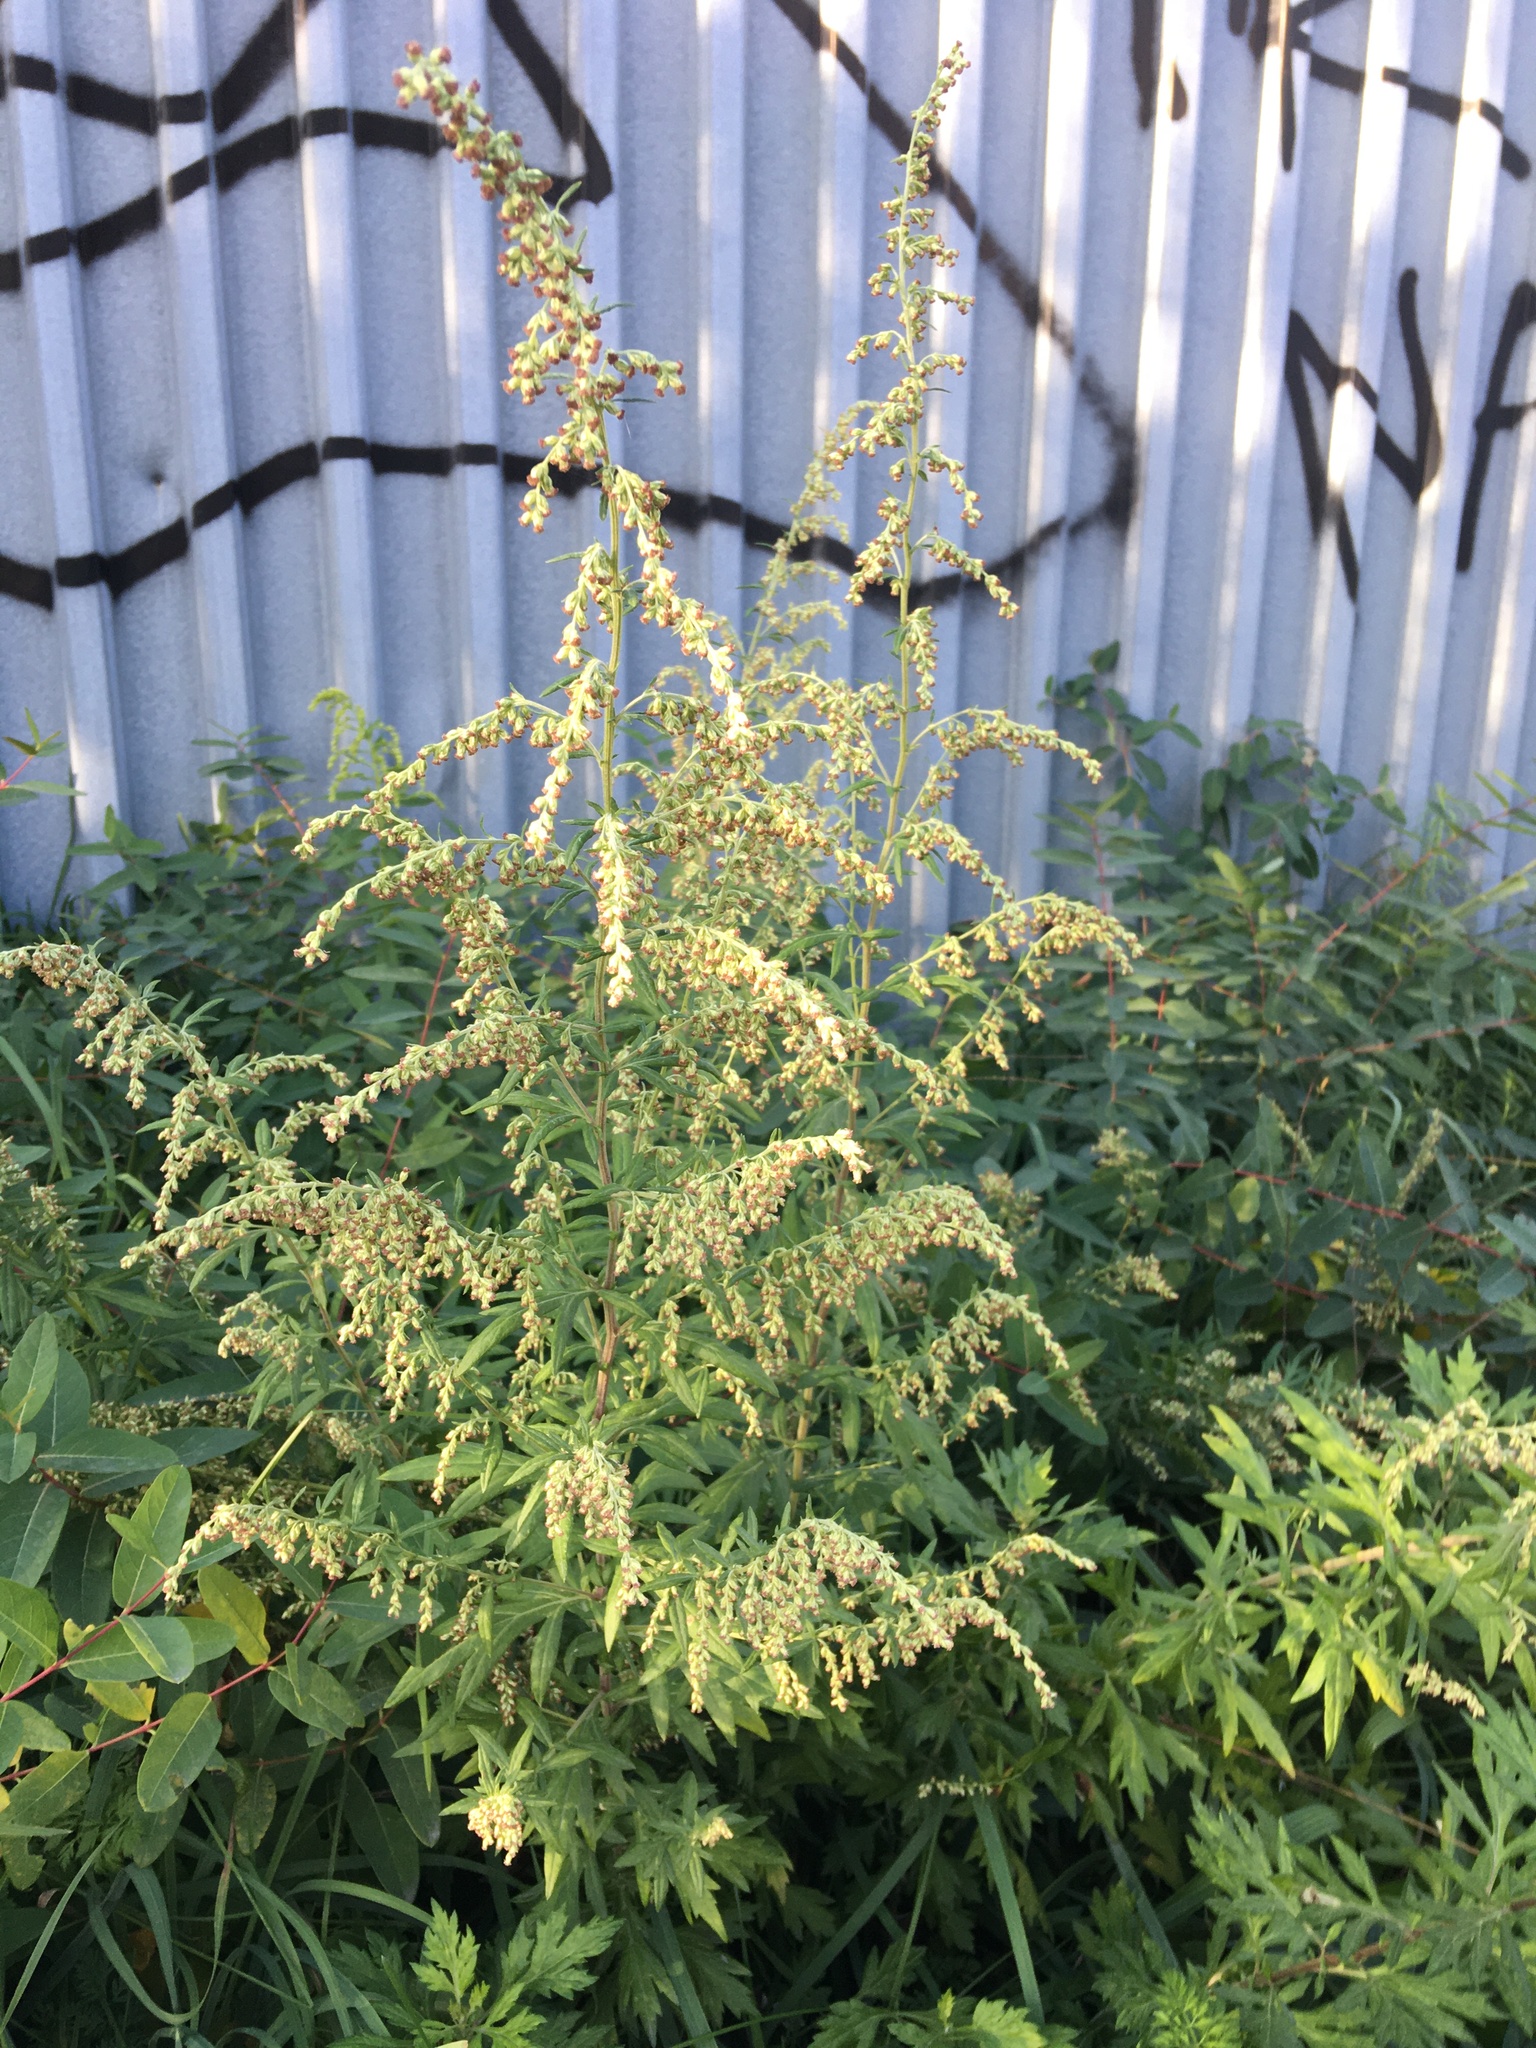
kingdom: Plantae
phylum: Tracheophyta
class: Magnoliopsida
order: Asterales
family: Asteraceae
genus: Artemisia
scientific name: Artemisia vulgaris
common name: Mugwort
